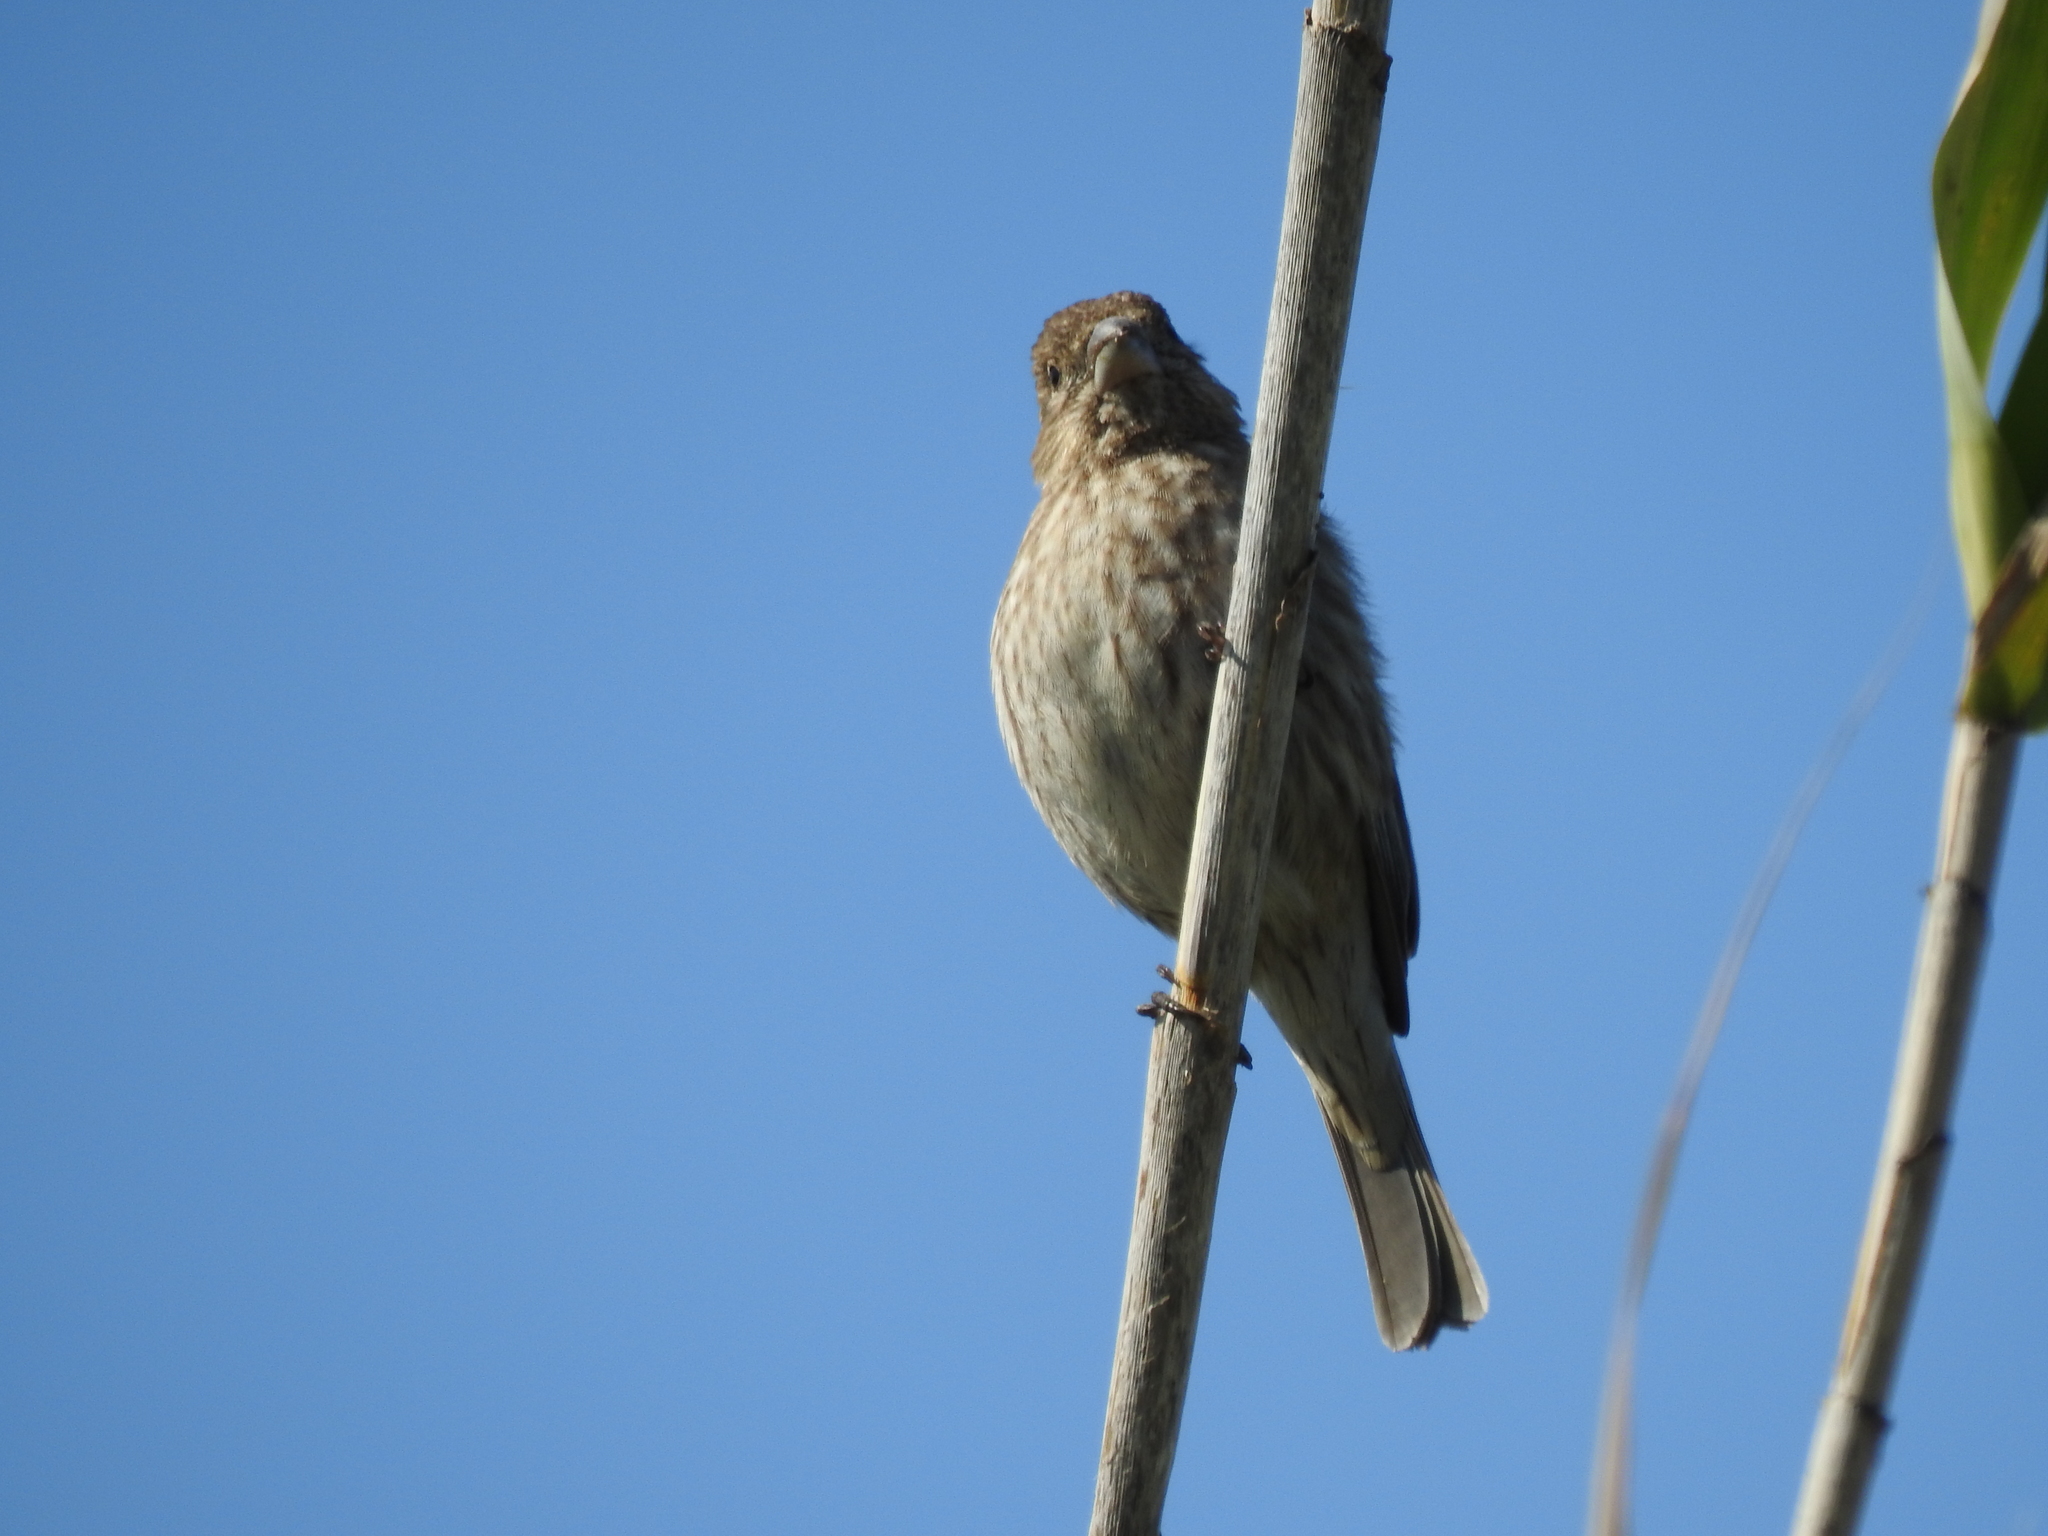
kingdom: Animalia
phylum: Chordata
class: Aves
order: Passeriformes
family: Fringillidae
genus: Haemorhous
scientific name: Haemorhous mexicanus
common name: House finch
